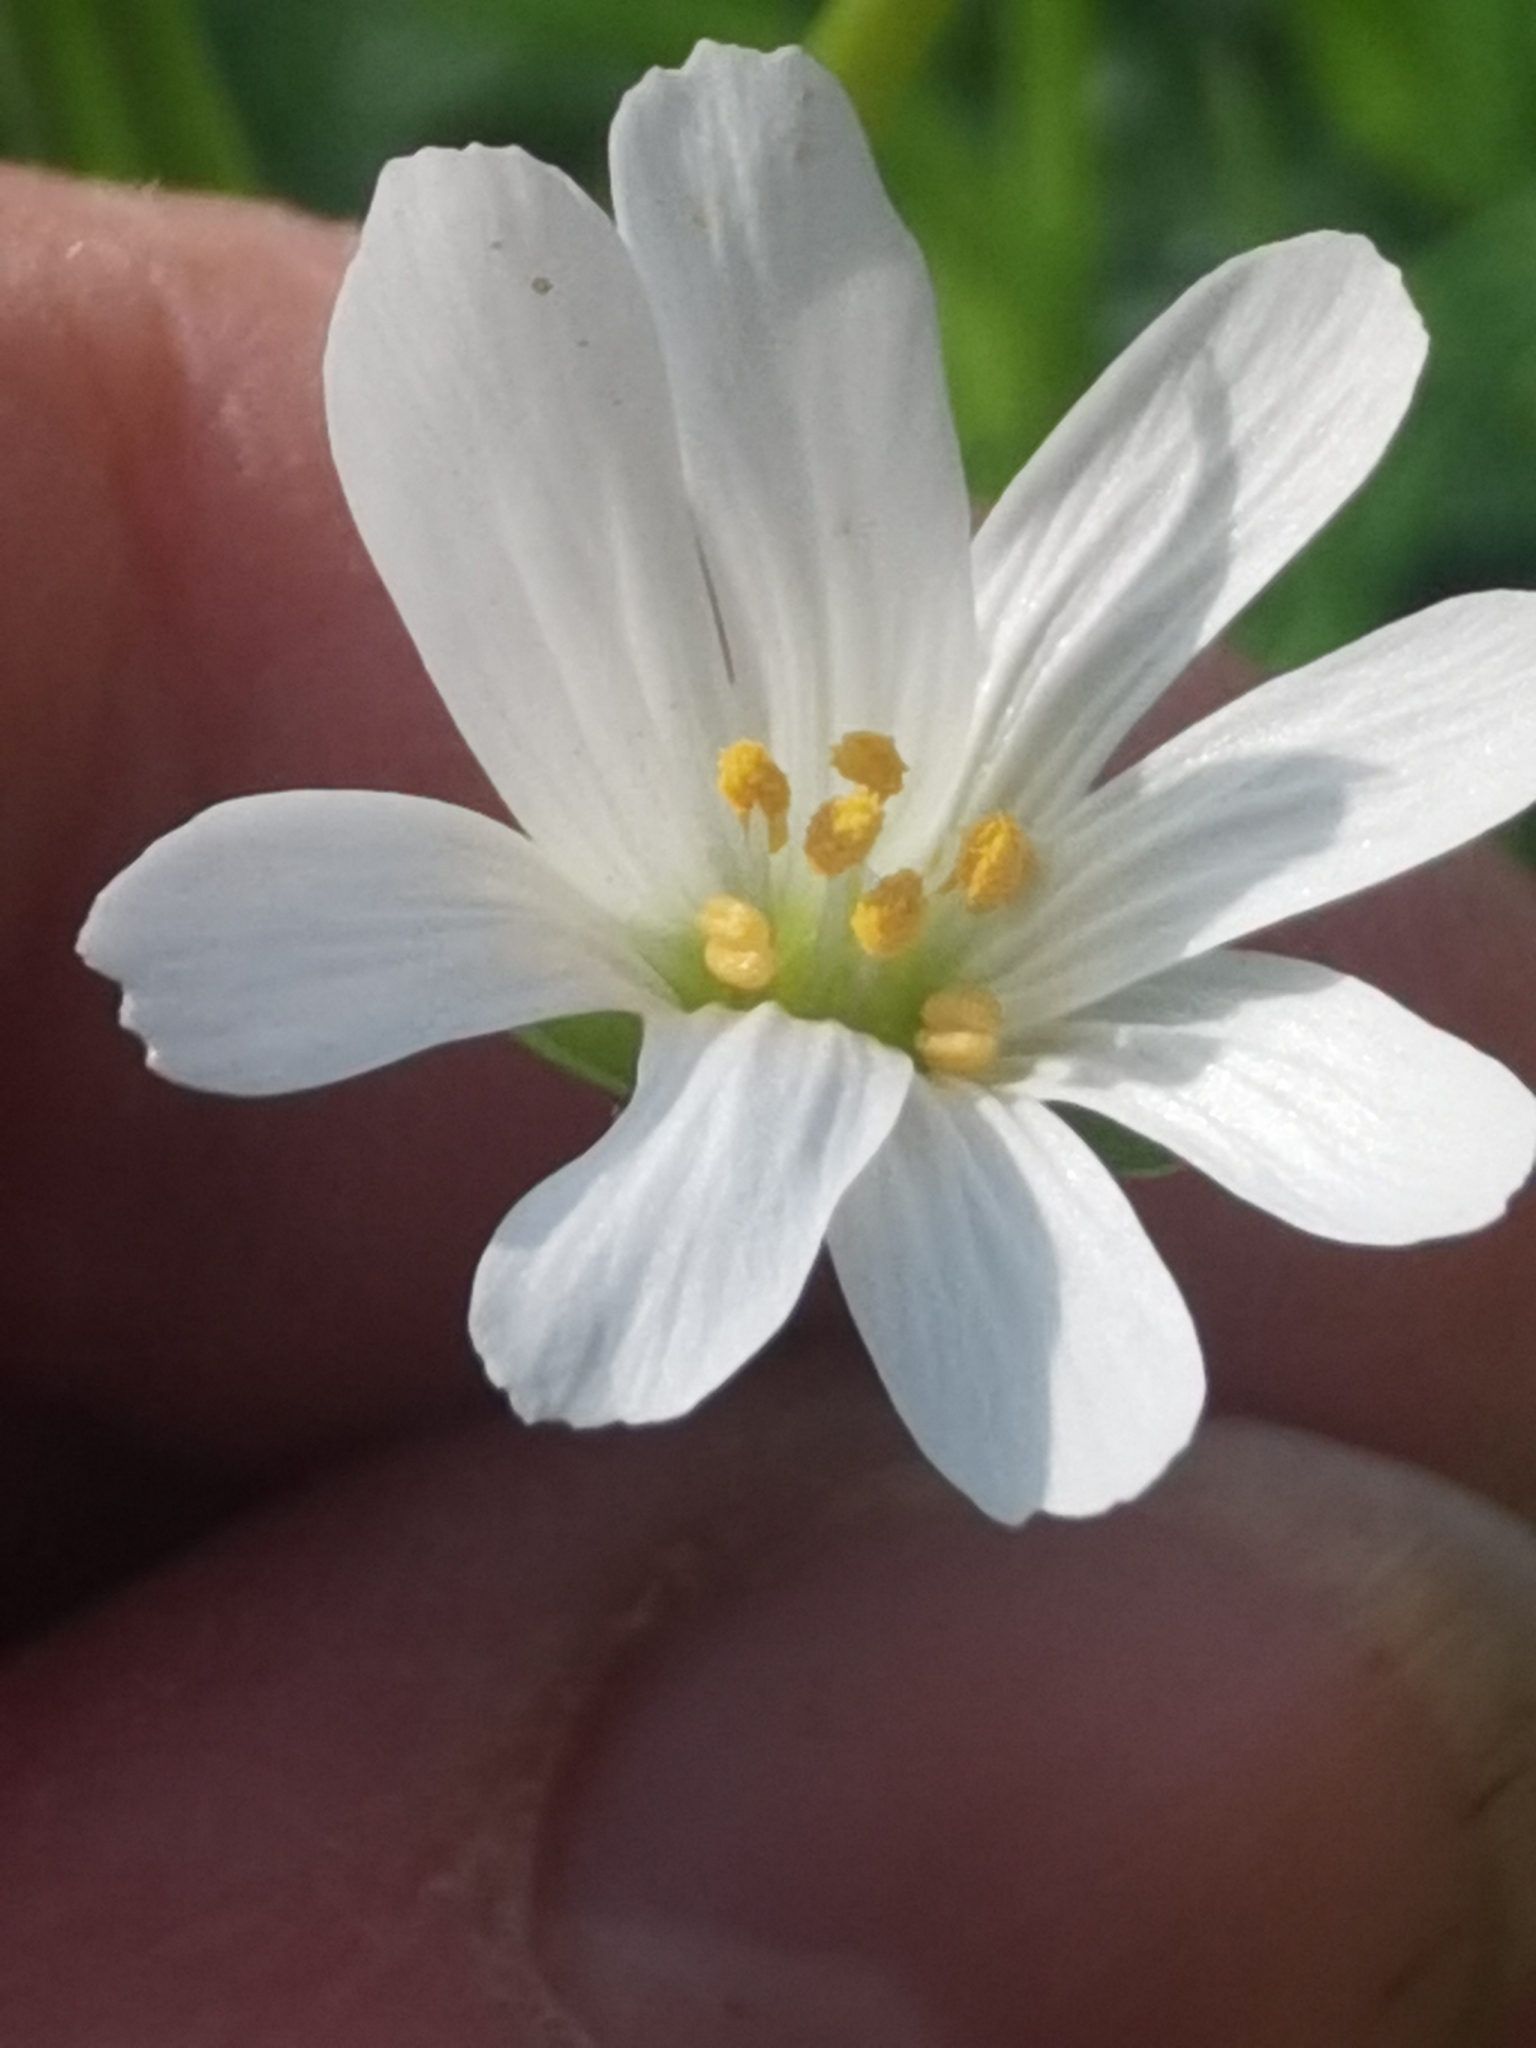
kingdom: Plantae
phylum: Tracheophyta
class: Magnoliopsida
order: Caryophyllales
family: Caryophyllaceae
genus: Rabelera
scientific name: Rabelera holostea
